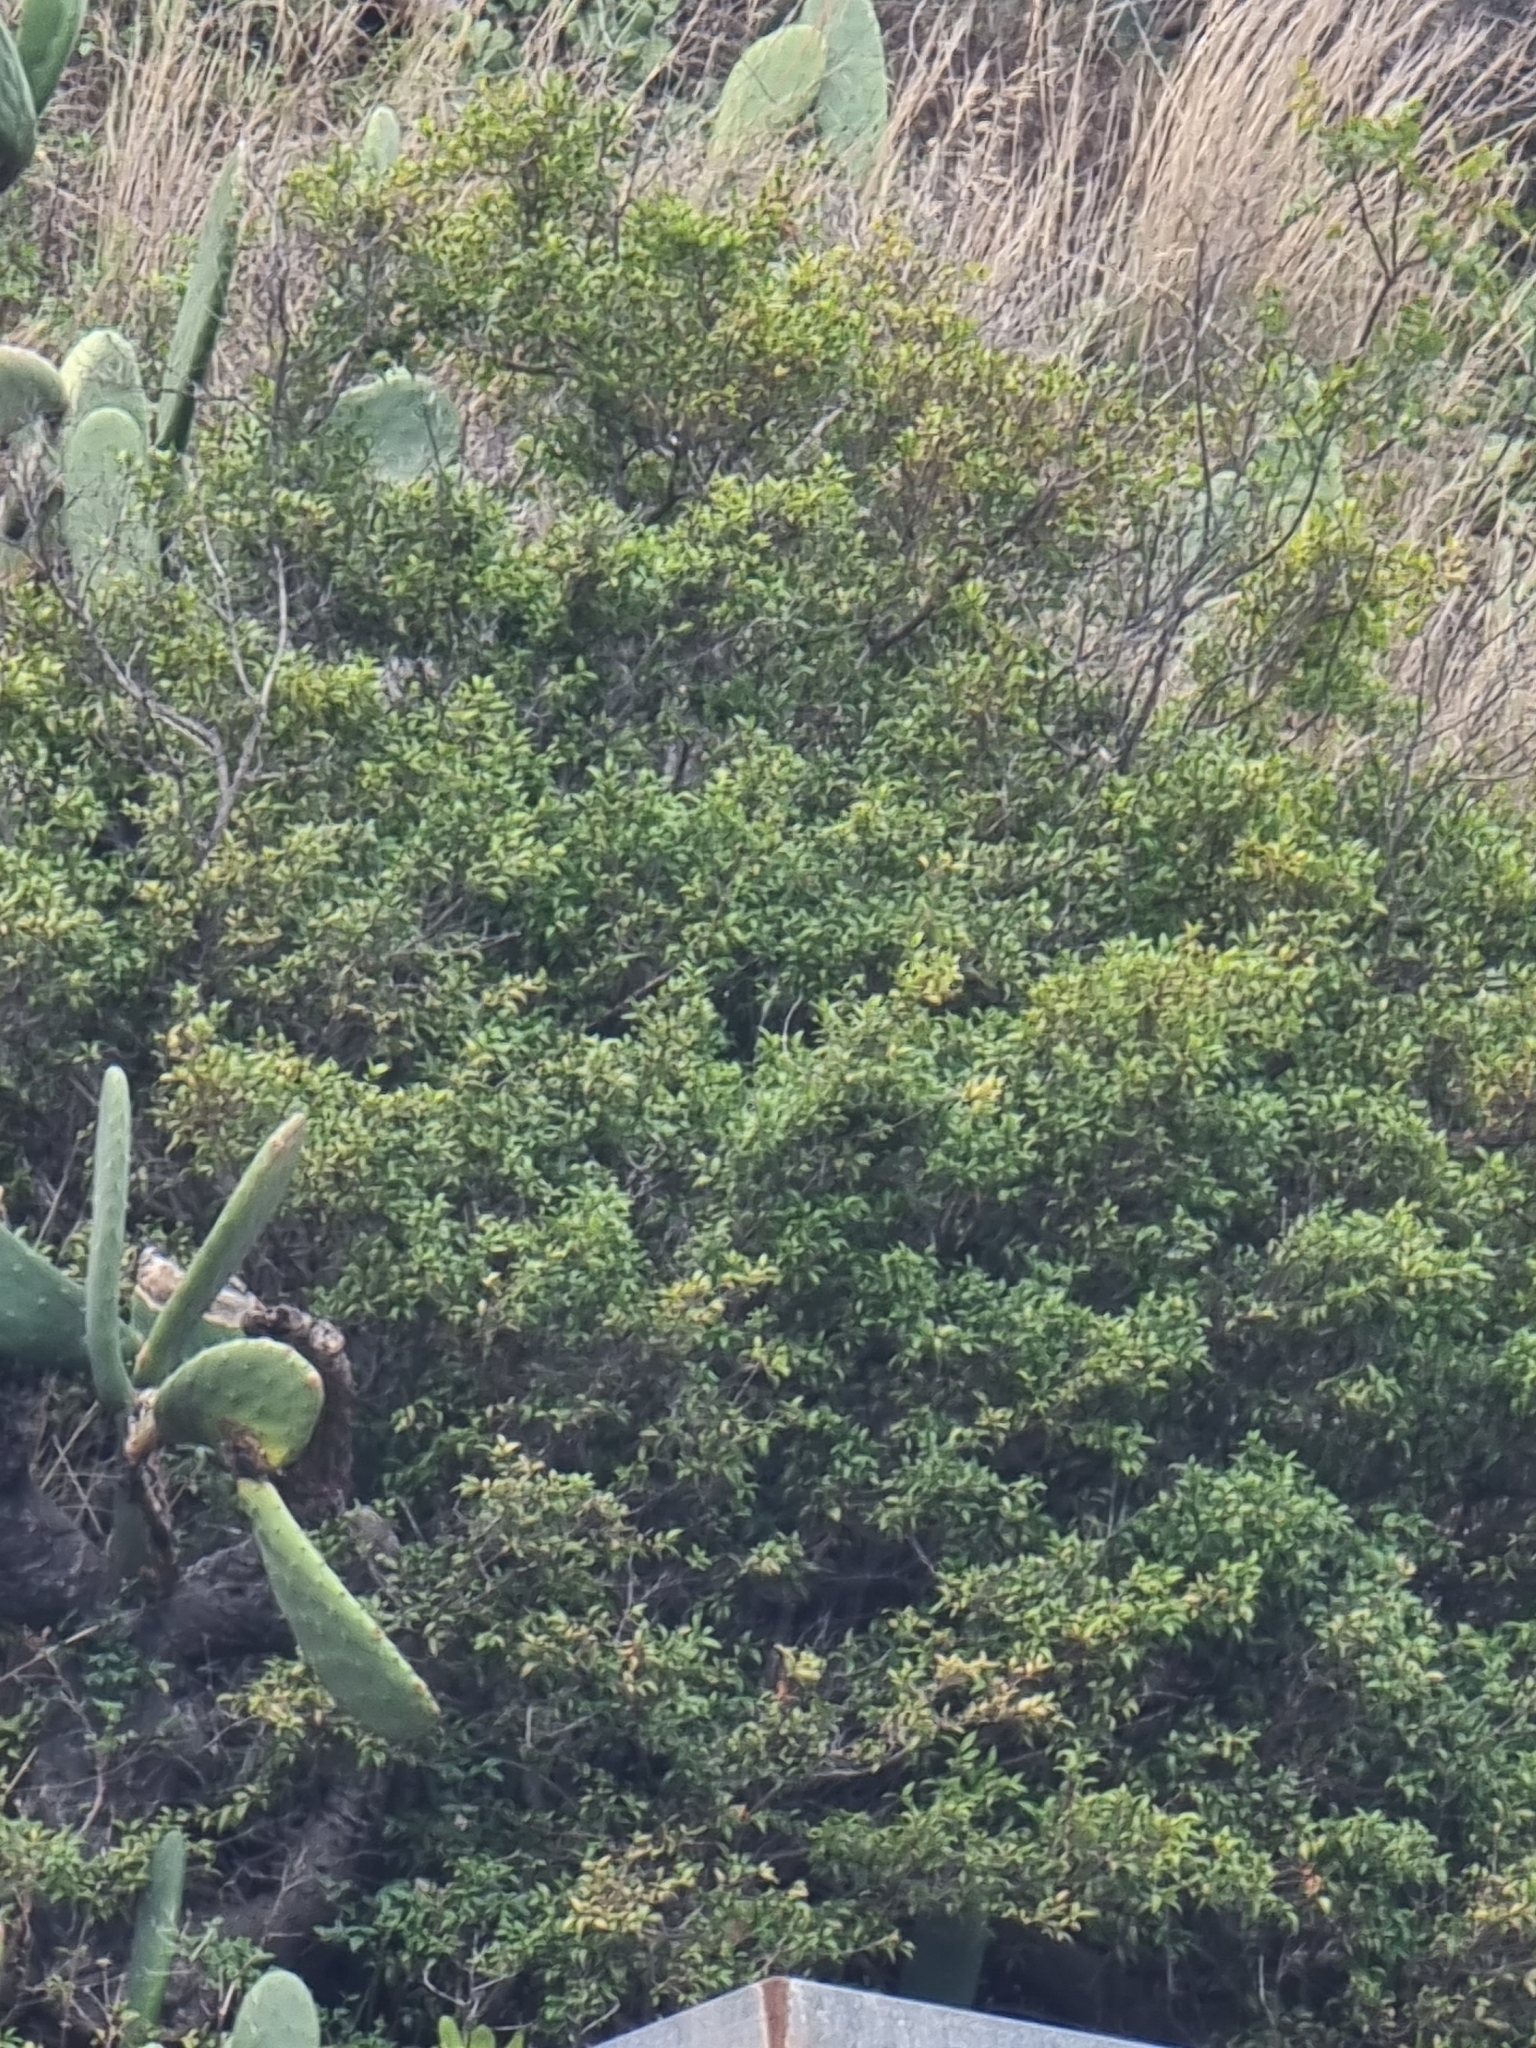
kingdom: Plantae
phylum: Tracheophyta
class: Magnoliopsida
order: Myrtales
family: Myrtaceae
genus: Myrtus
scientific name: Myrtus communis
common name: Myrtle
